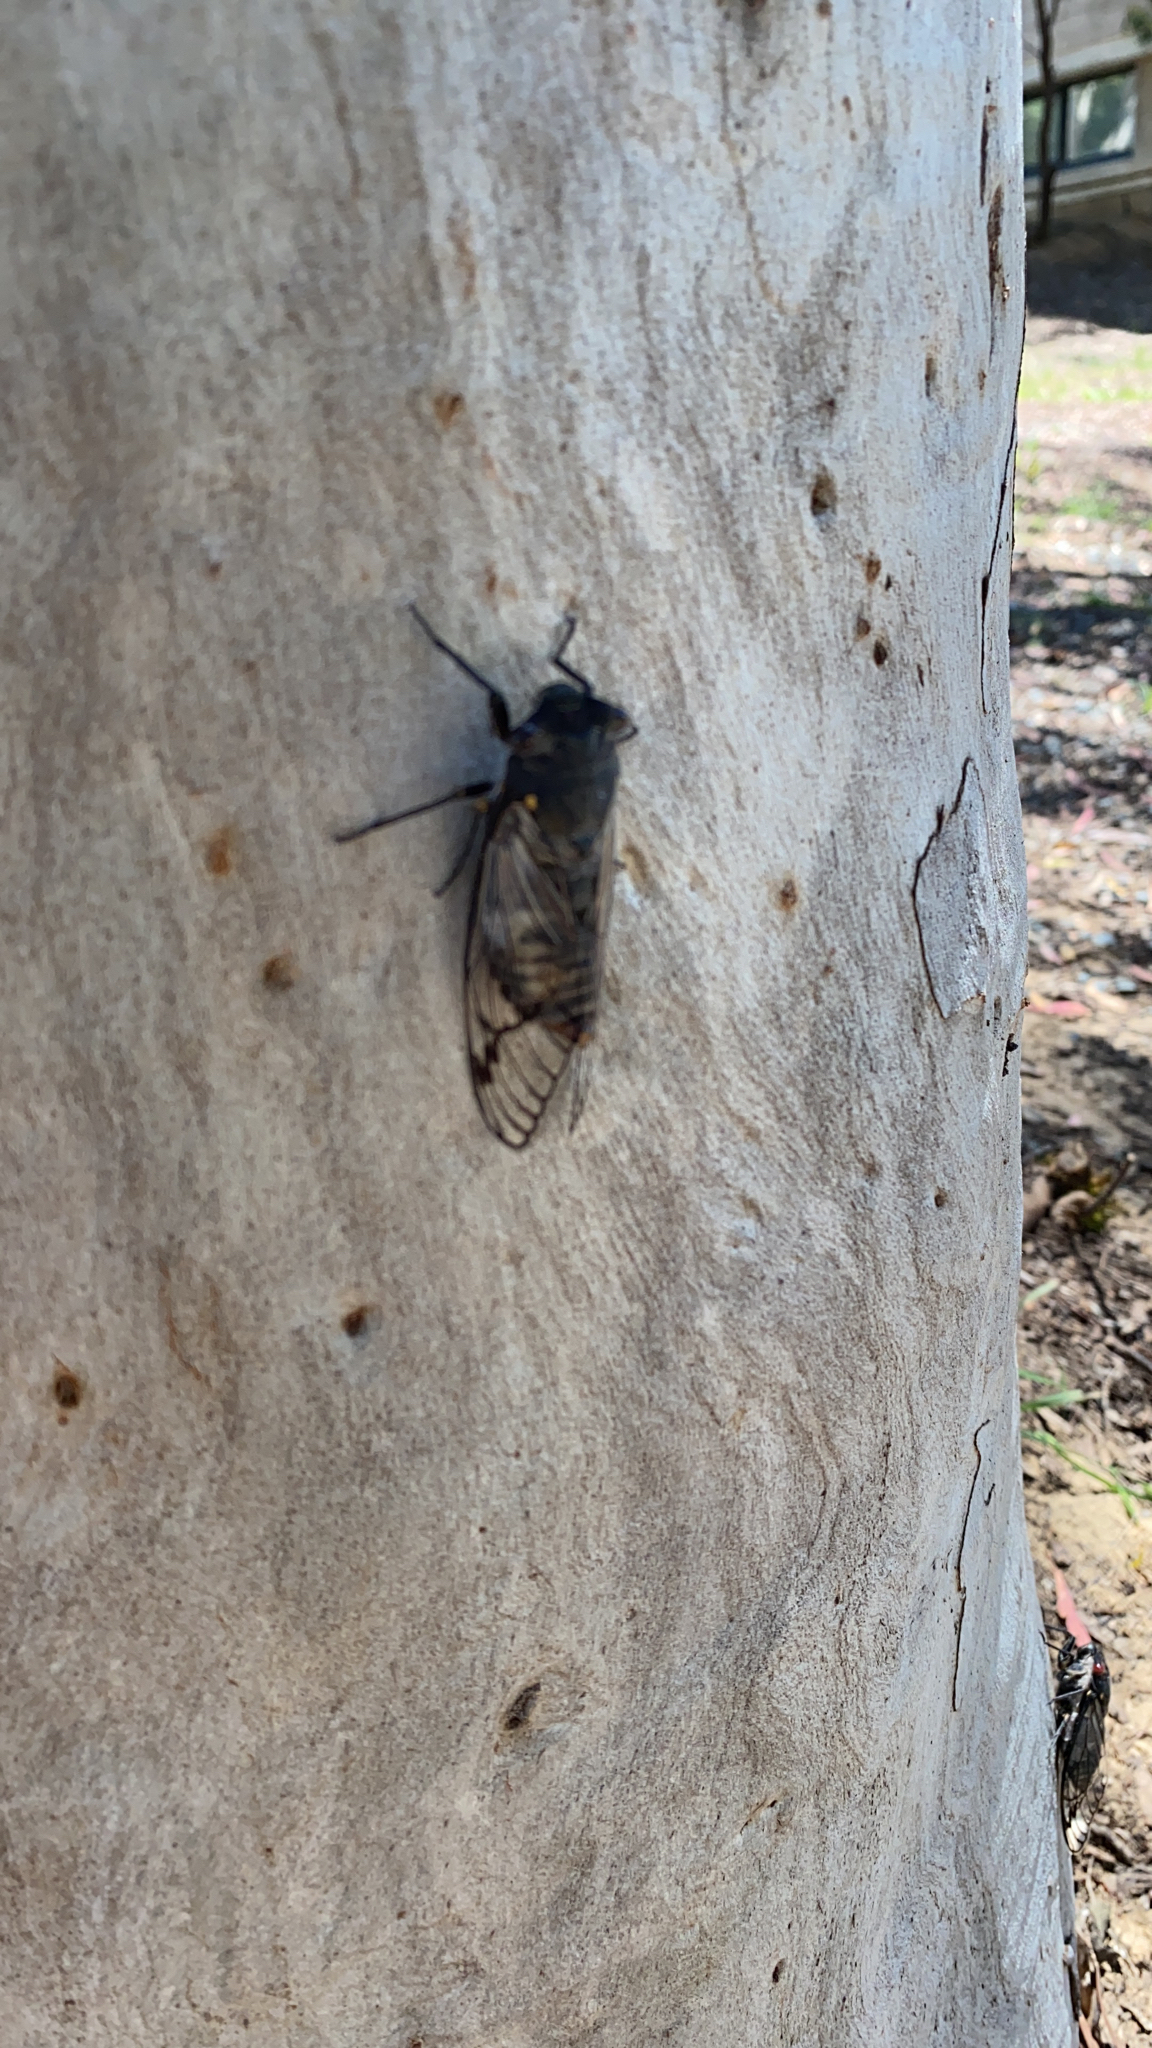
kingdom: Animalia
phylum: Arthropoda
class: Insecta
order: Hemiptera
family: Cicadidae
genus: Psaltoda
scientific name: Psaltoda moerens
